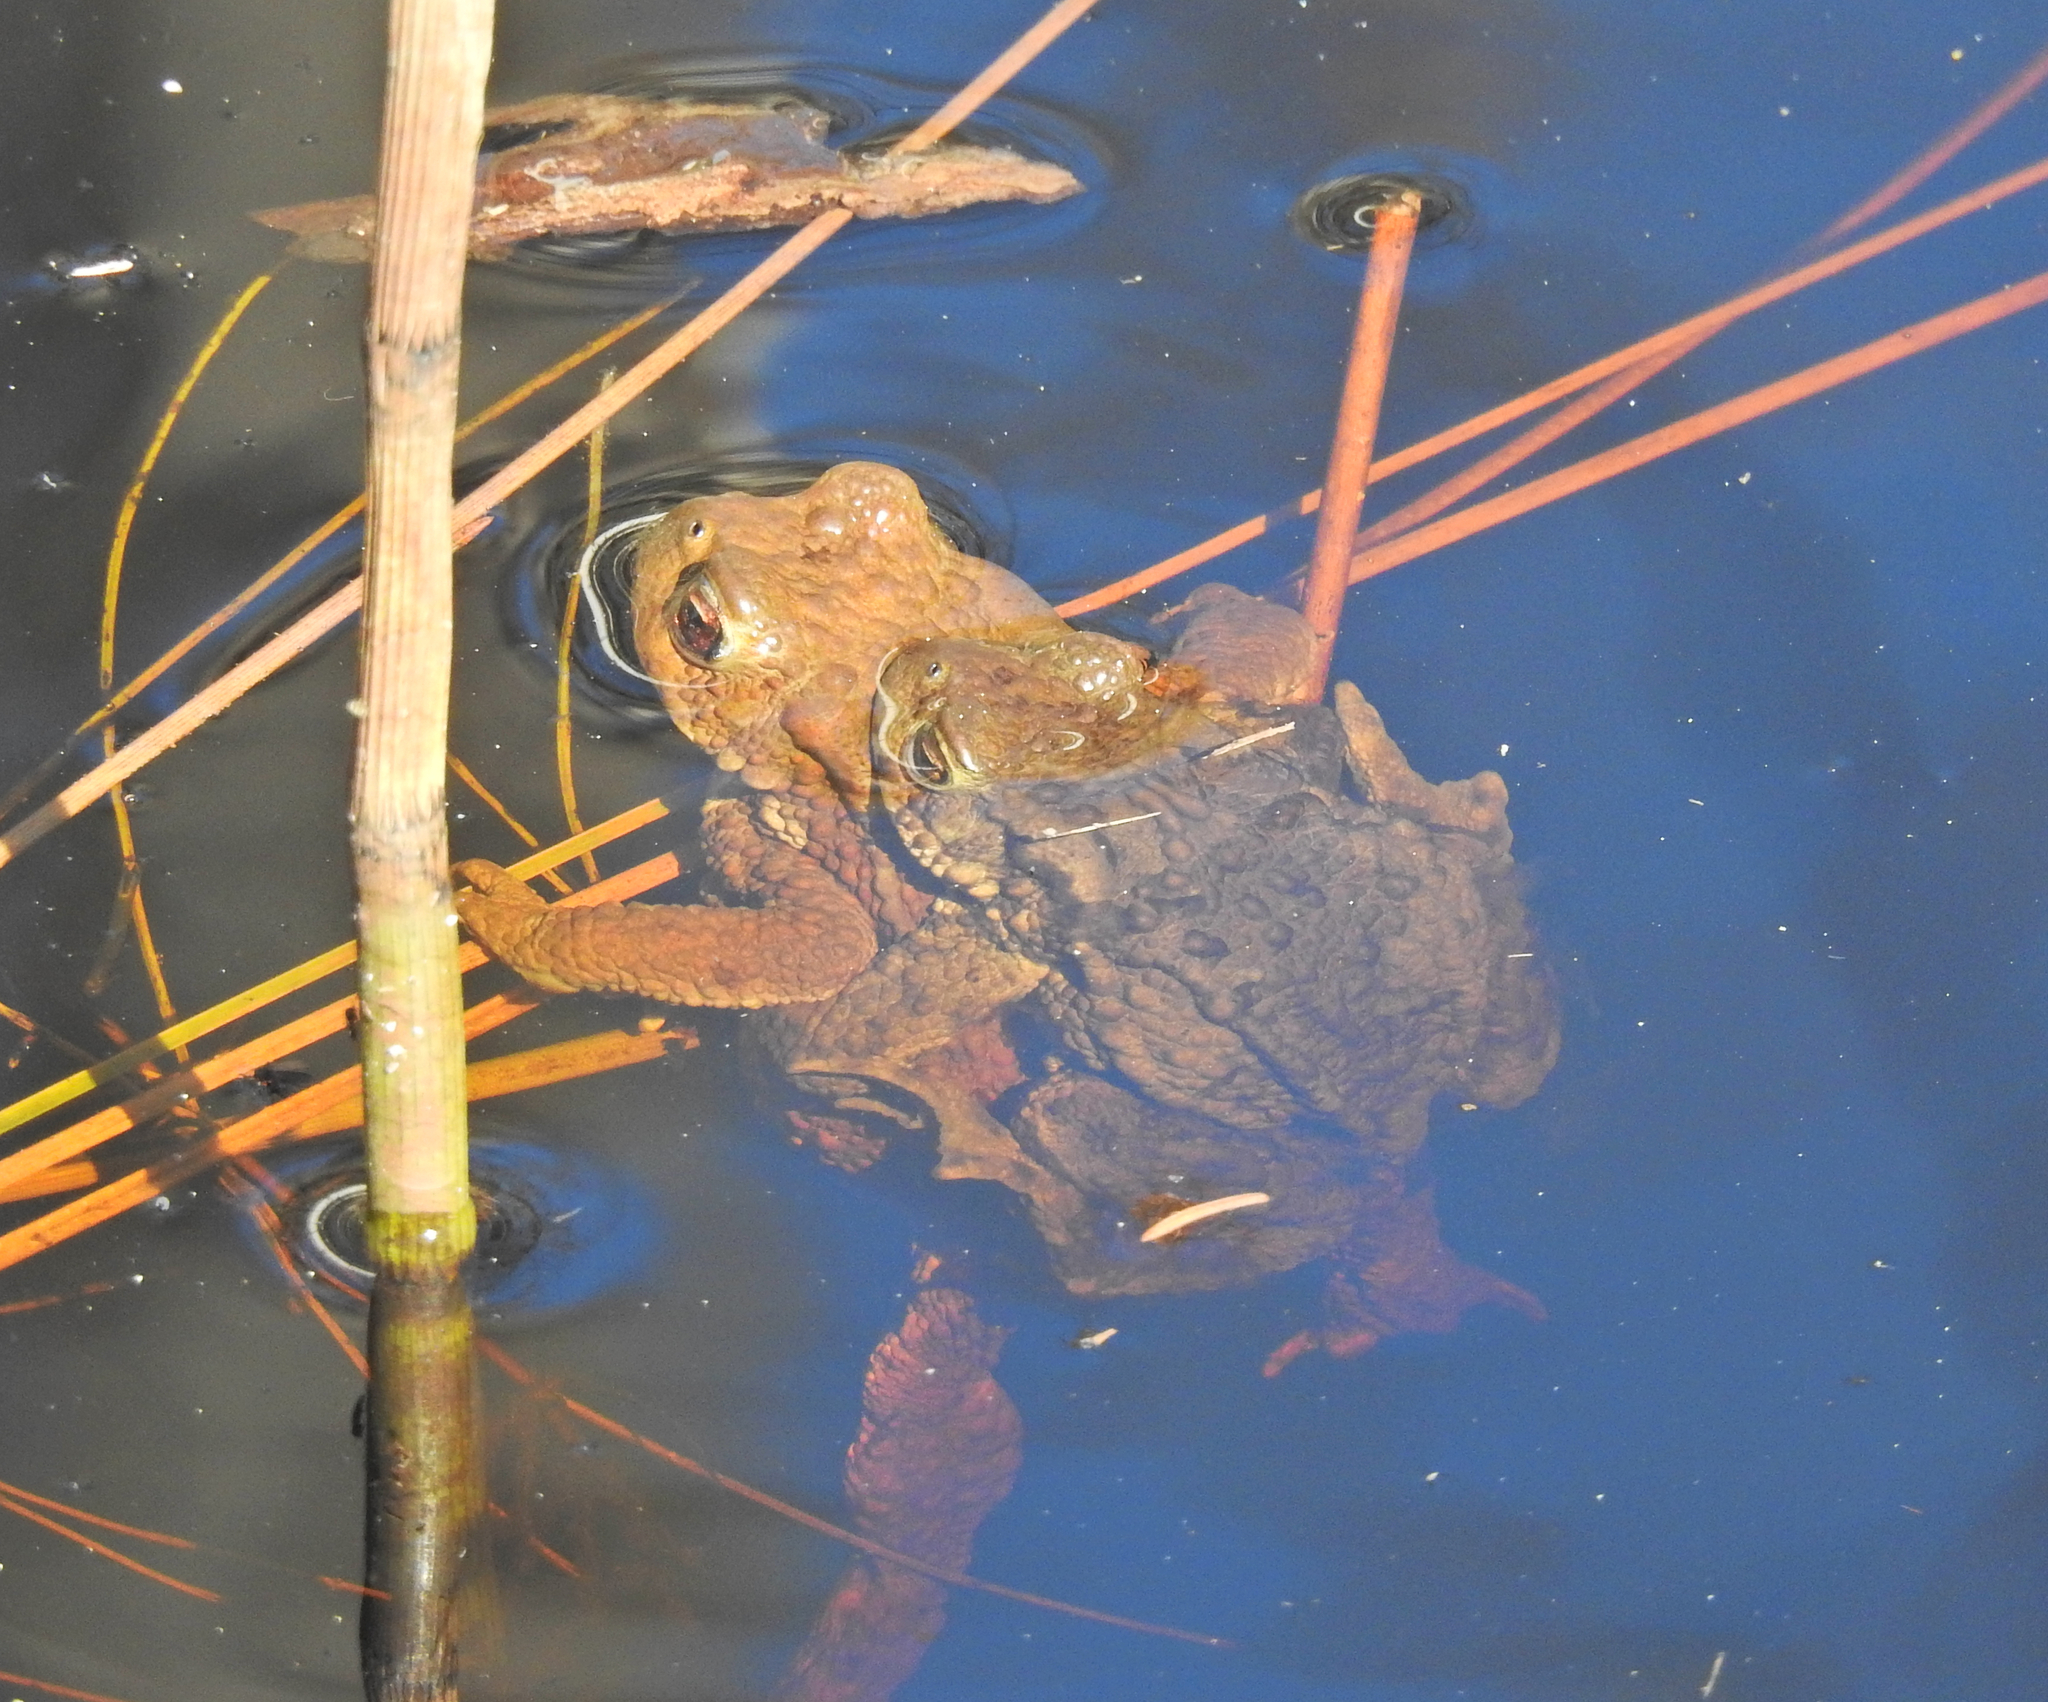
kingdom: Animalia
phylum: Chordata
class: Amphibia
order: Anura
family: Bufonidae
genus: Bufo
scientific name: Bufo bufo
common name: Common toad
